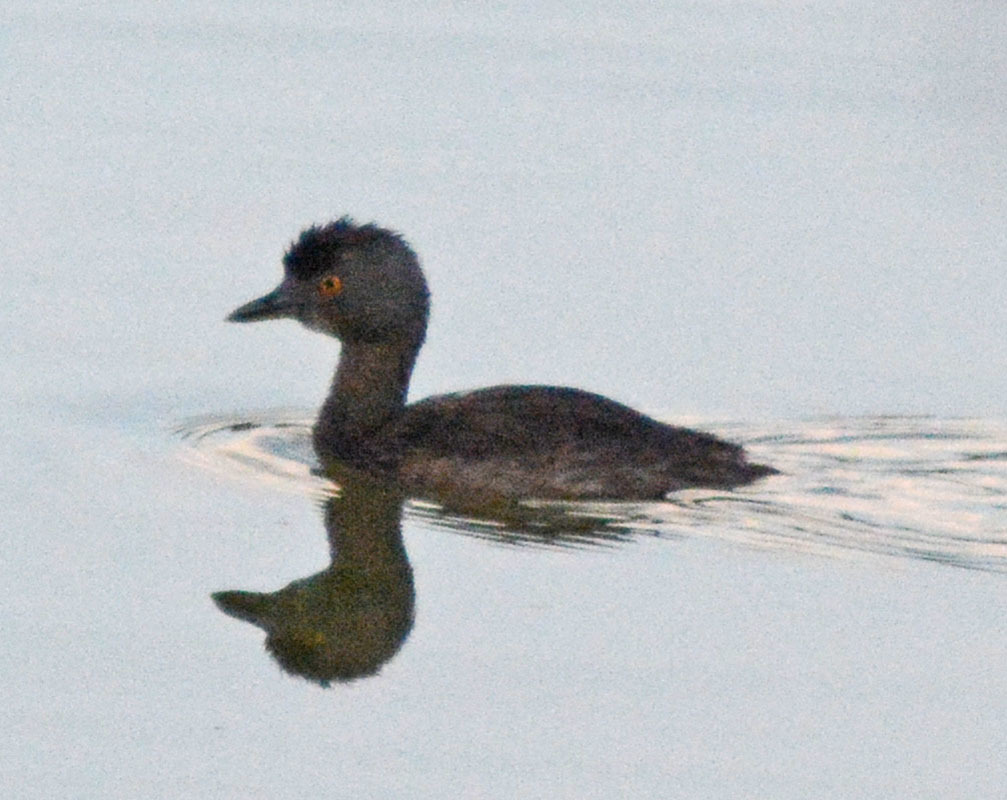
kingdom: Animalia
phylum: Chordata
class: Aves
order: Podicipediformes
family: Podicipedidae
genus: Tachybaptus
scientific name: Tachybaptus dominicus
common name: Least grebe
